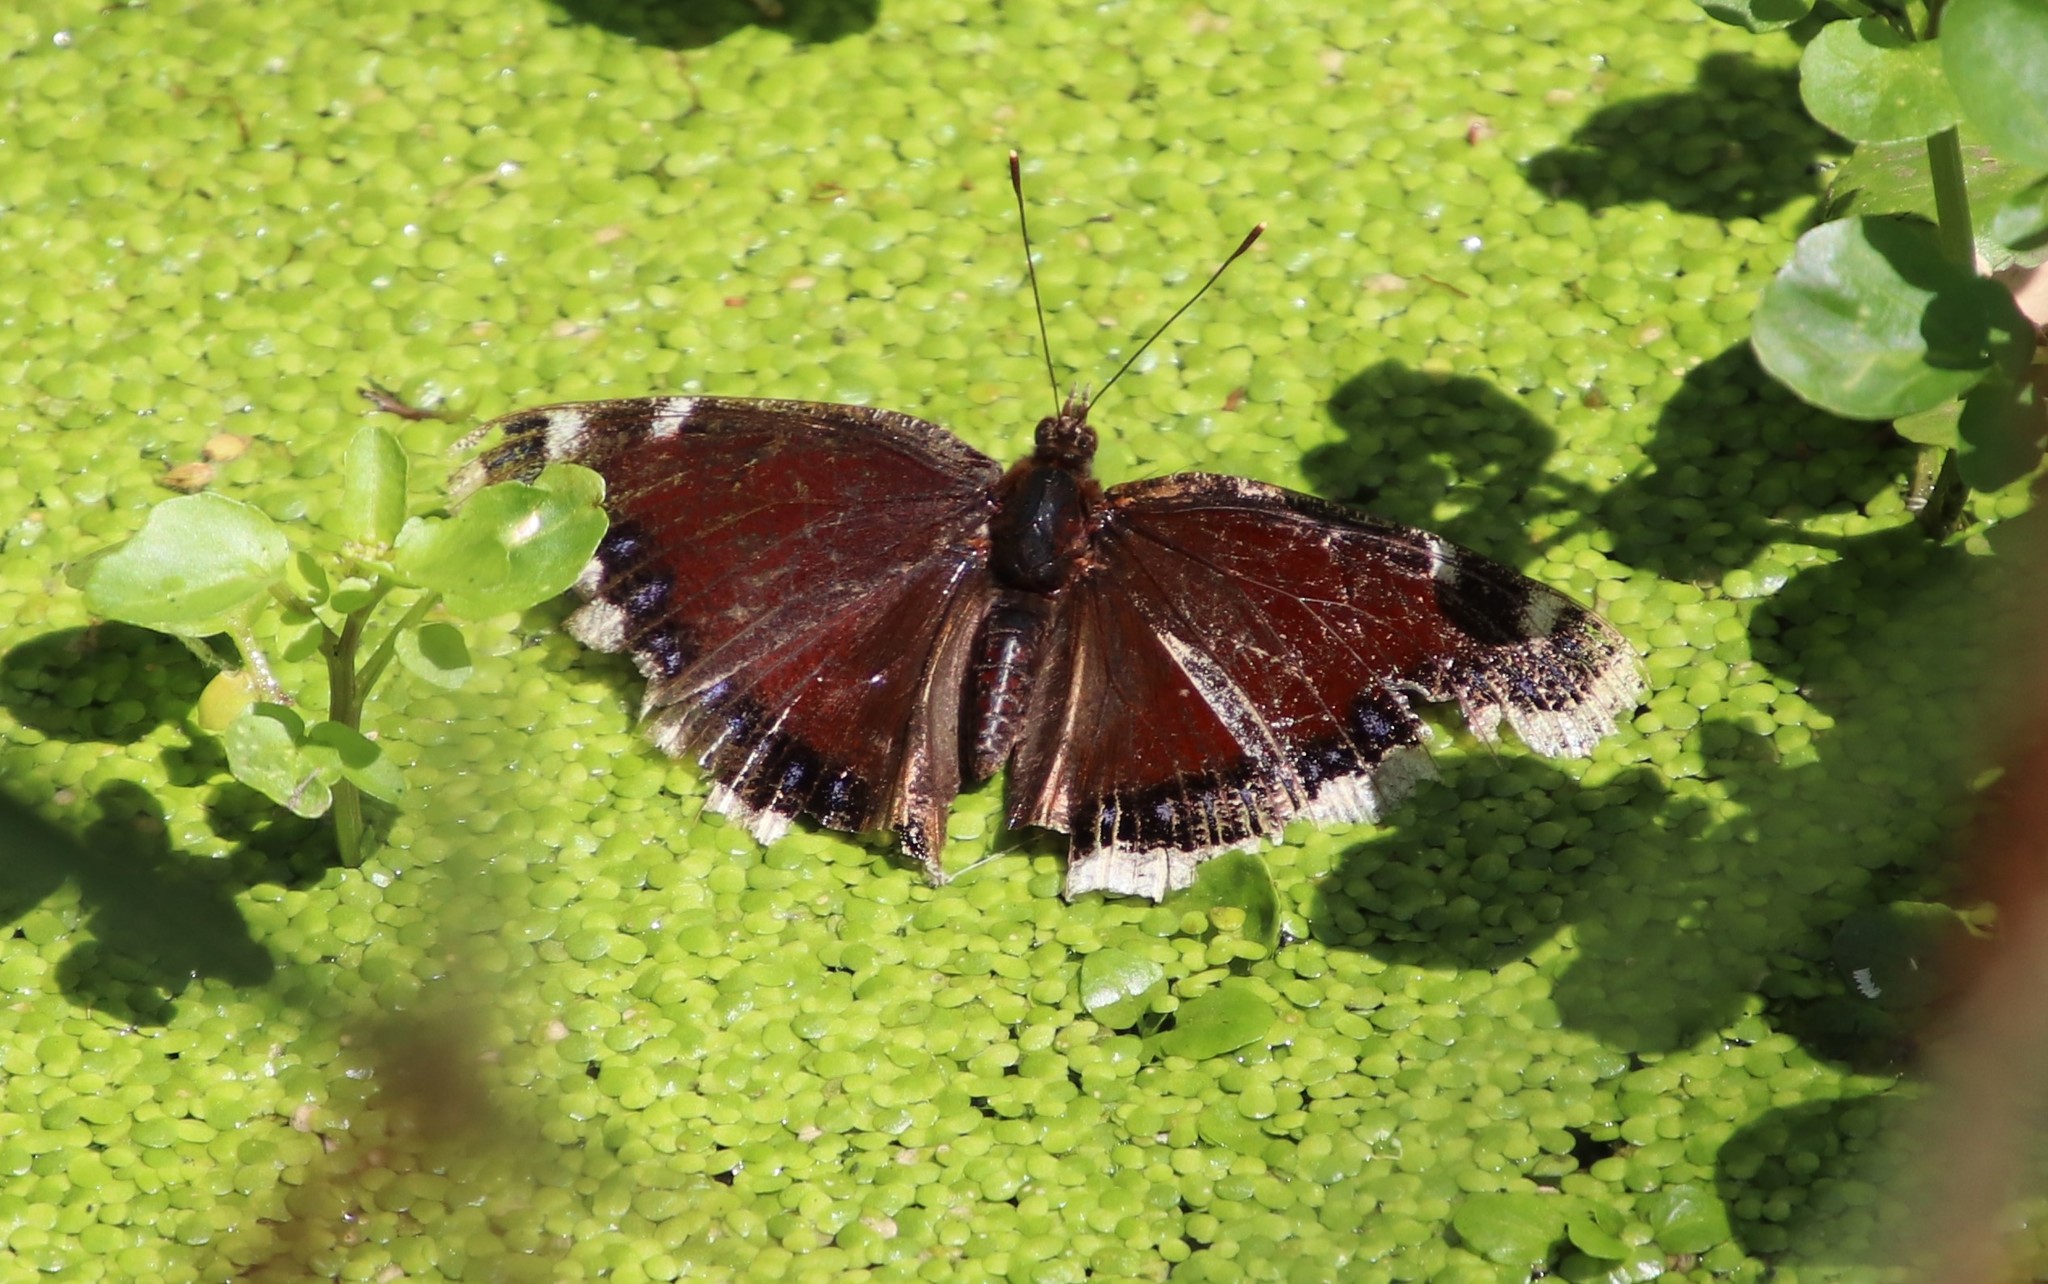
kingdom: Animalia
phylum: Arthropoda
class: Insecta
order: Lepidoptera
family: Nymphalidae
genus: Nymphalis
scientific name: Nymphalis antiopa
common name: Camberwell beauty
